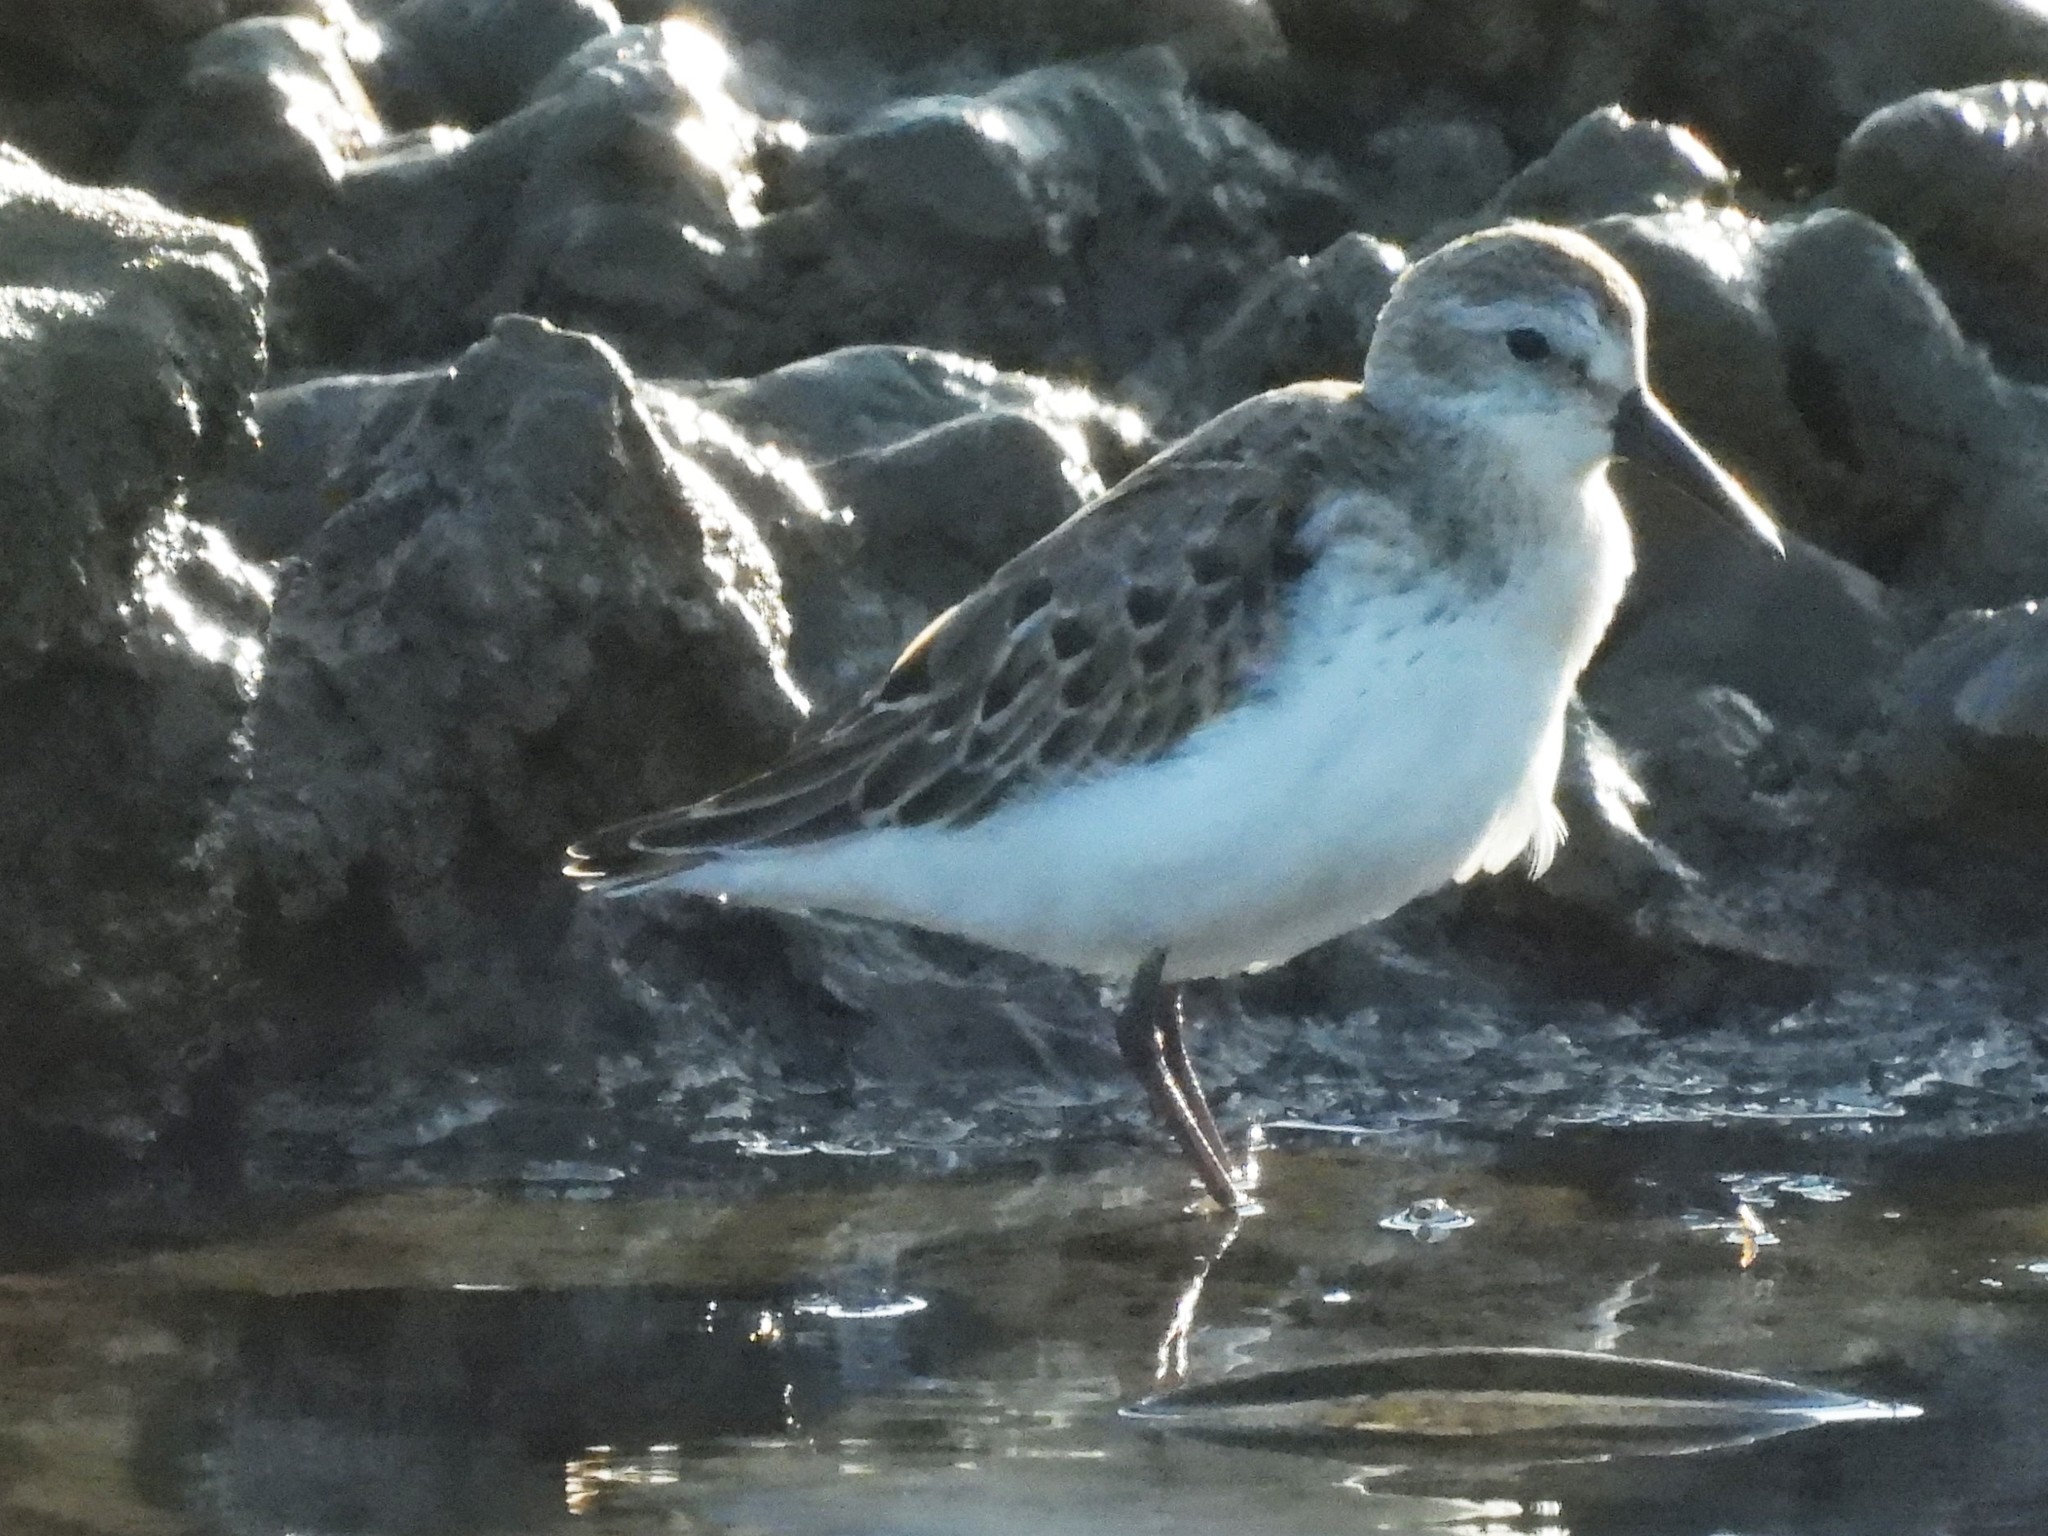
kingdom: Animalia
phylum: Chordata
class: Aves
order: Charadriiformes
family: Scolopacidae
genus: Calidris
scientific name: Calidris mauri
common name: Western sandpiper
